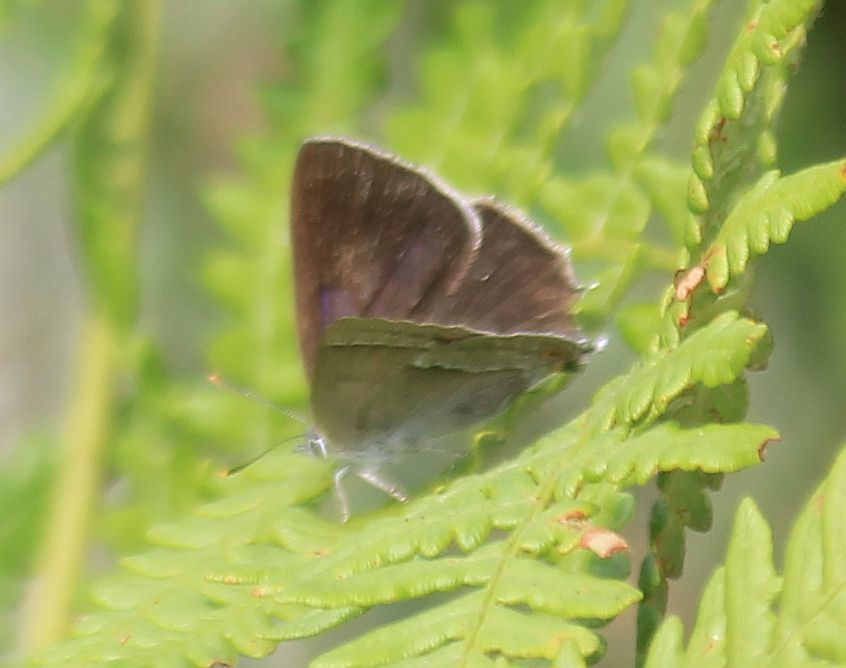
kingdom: Animalia
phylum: Arthropoda
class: Insecta
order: Lepidoptera
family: Lycaenidae
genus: Quercusia
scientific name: Quercusia quercus
